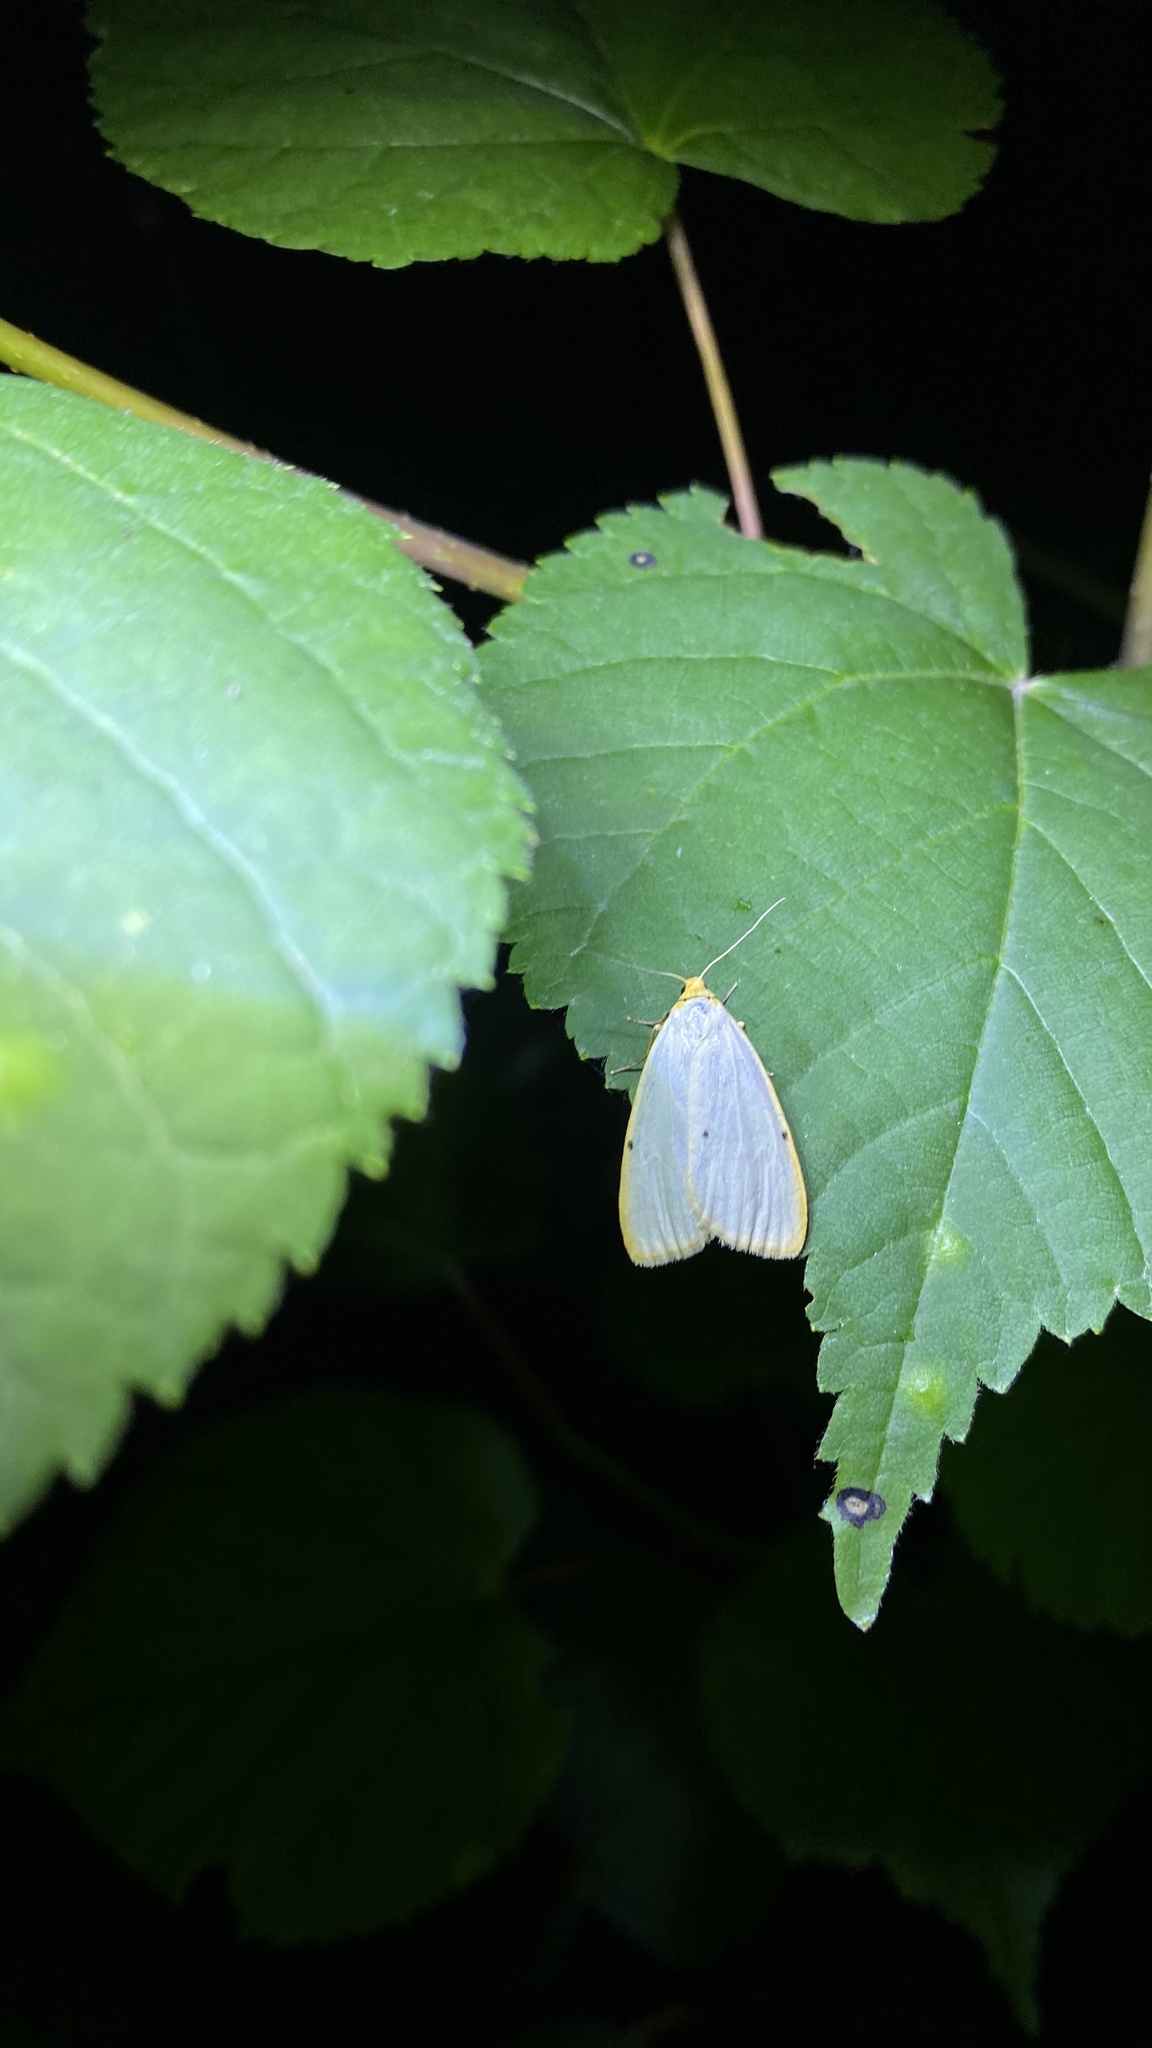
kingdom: Animalia
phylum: Arthropoda
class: Insecta
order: Lepidoptera
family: Erebidae
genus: Cybosia
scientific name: Cybosia mesomella
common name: Four-dotted footman
